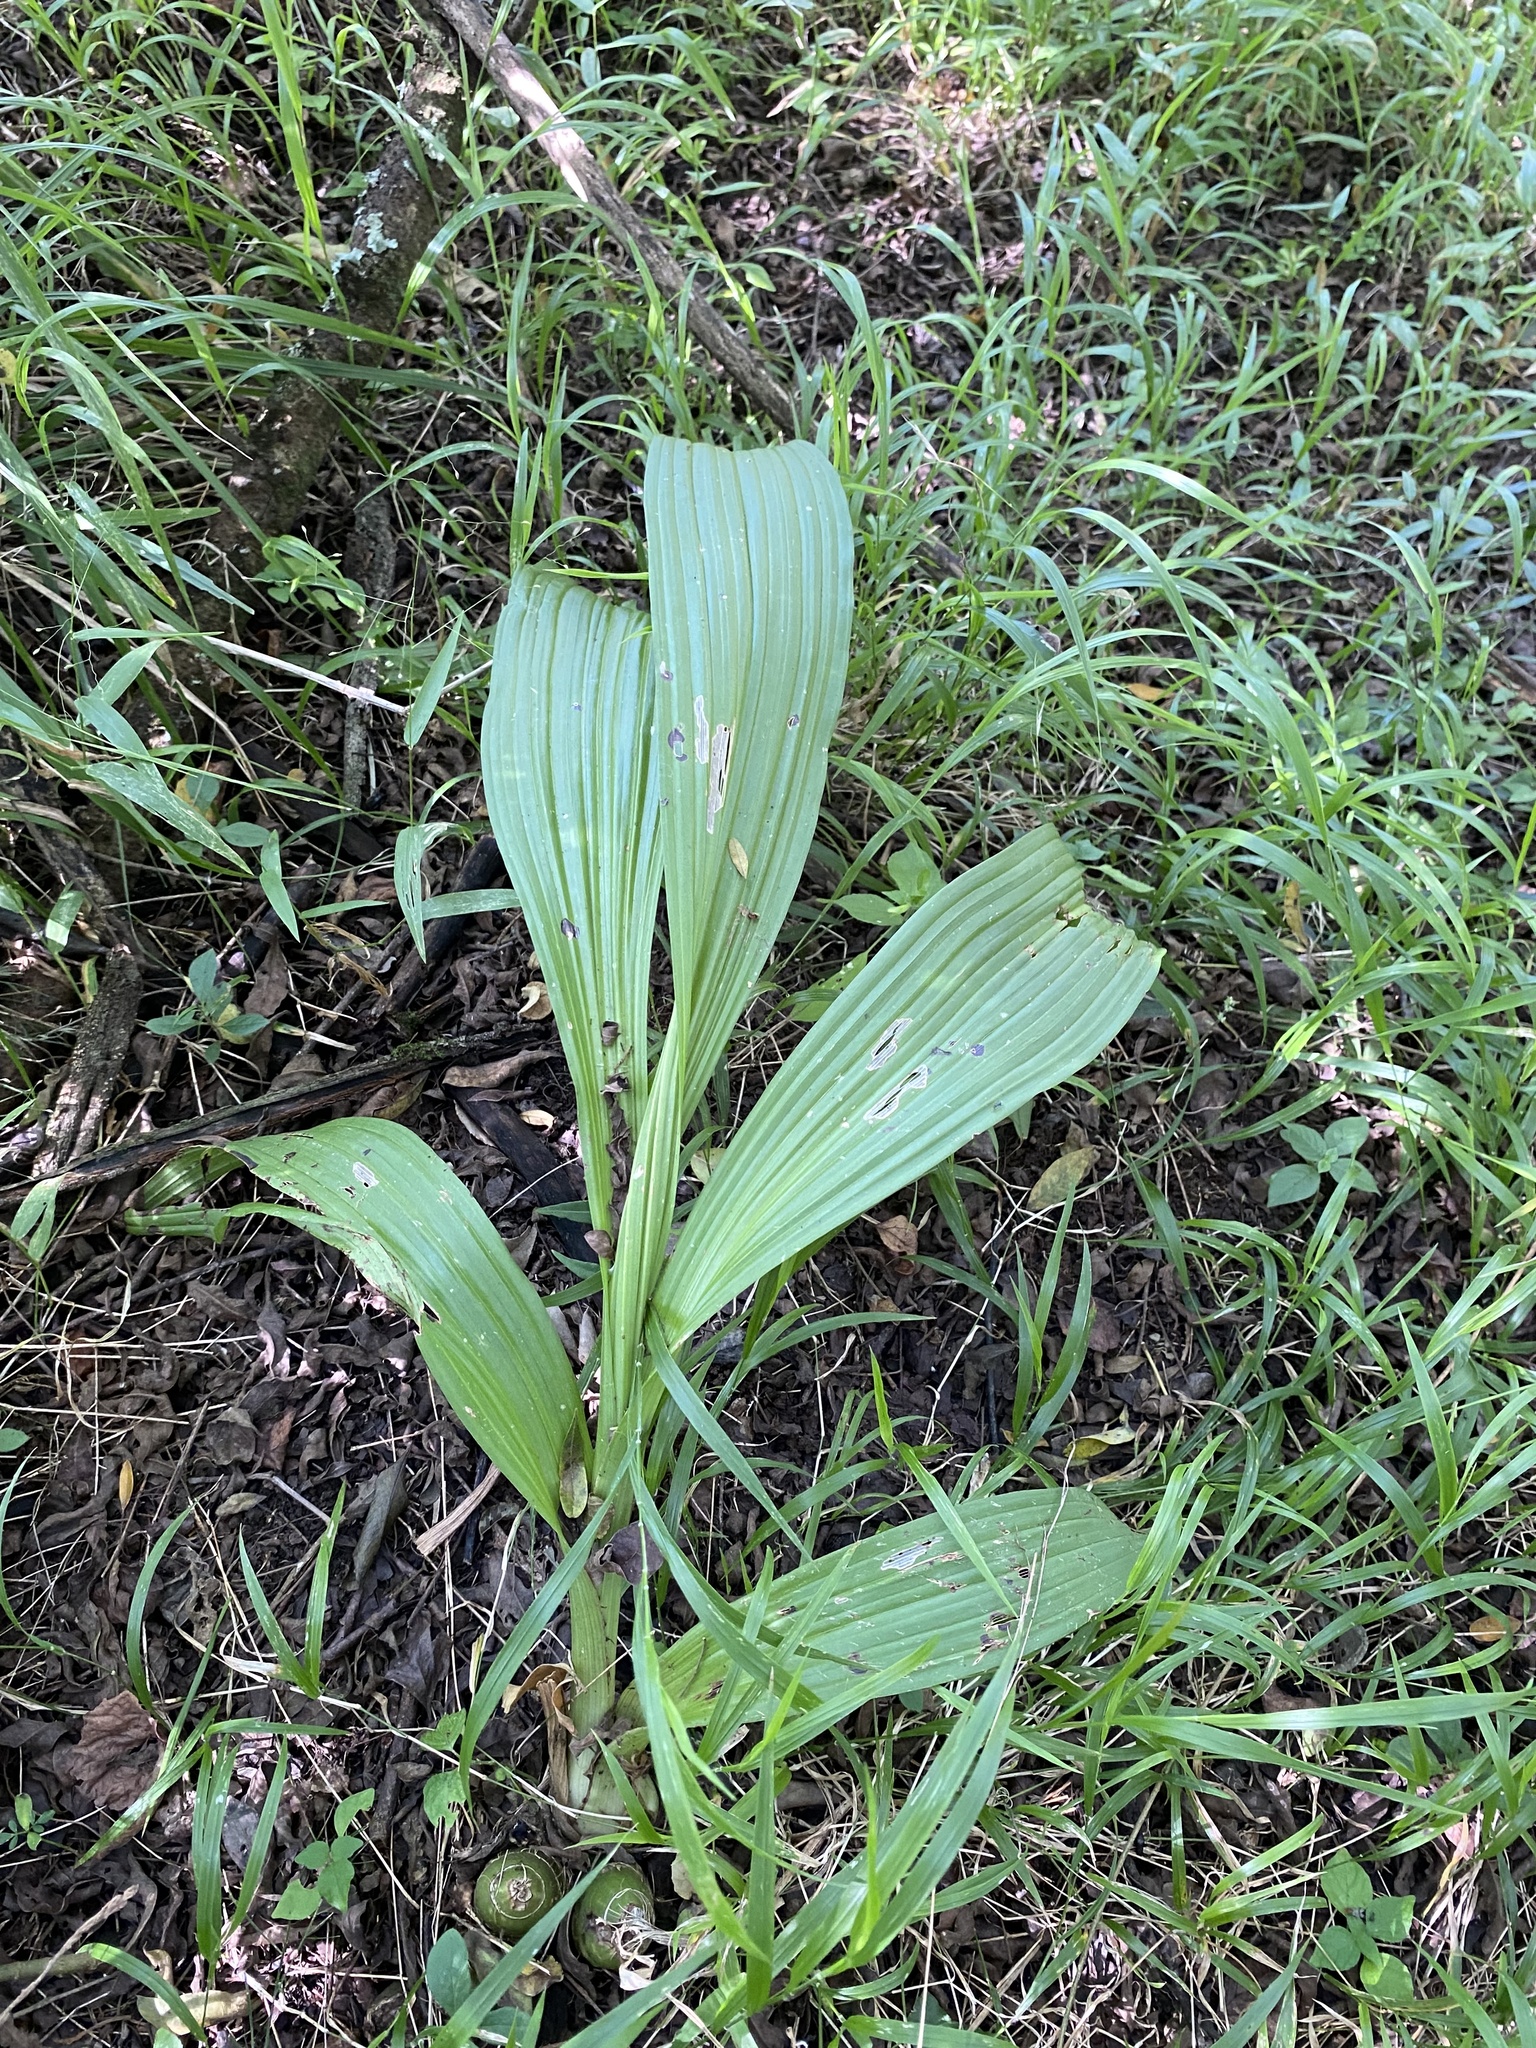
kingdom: Plantae
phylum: Tracheophyta
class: Liliopsida
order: Asparagales
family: Orchidaceae
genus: Eulophia
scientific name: Eulophia streptopetala
